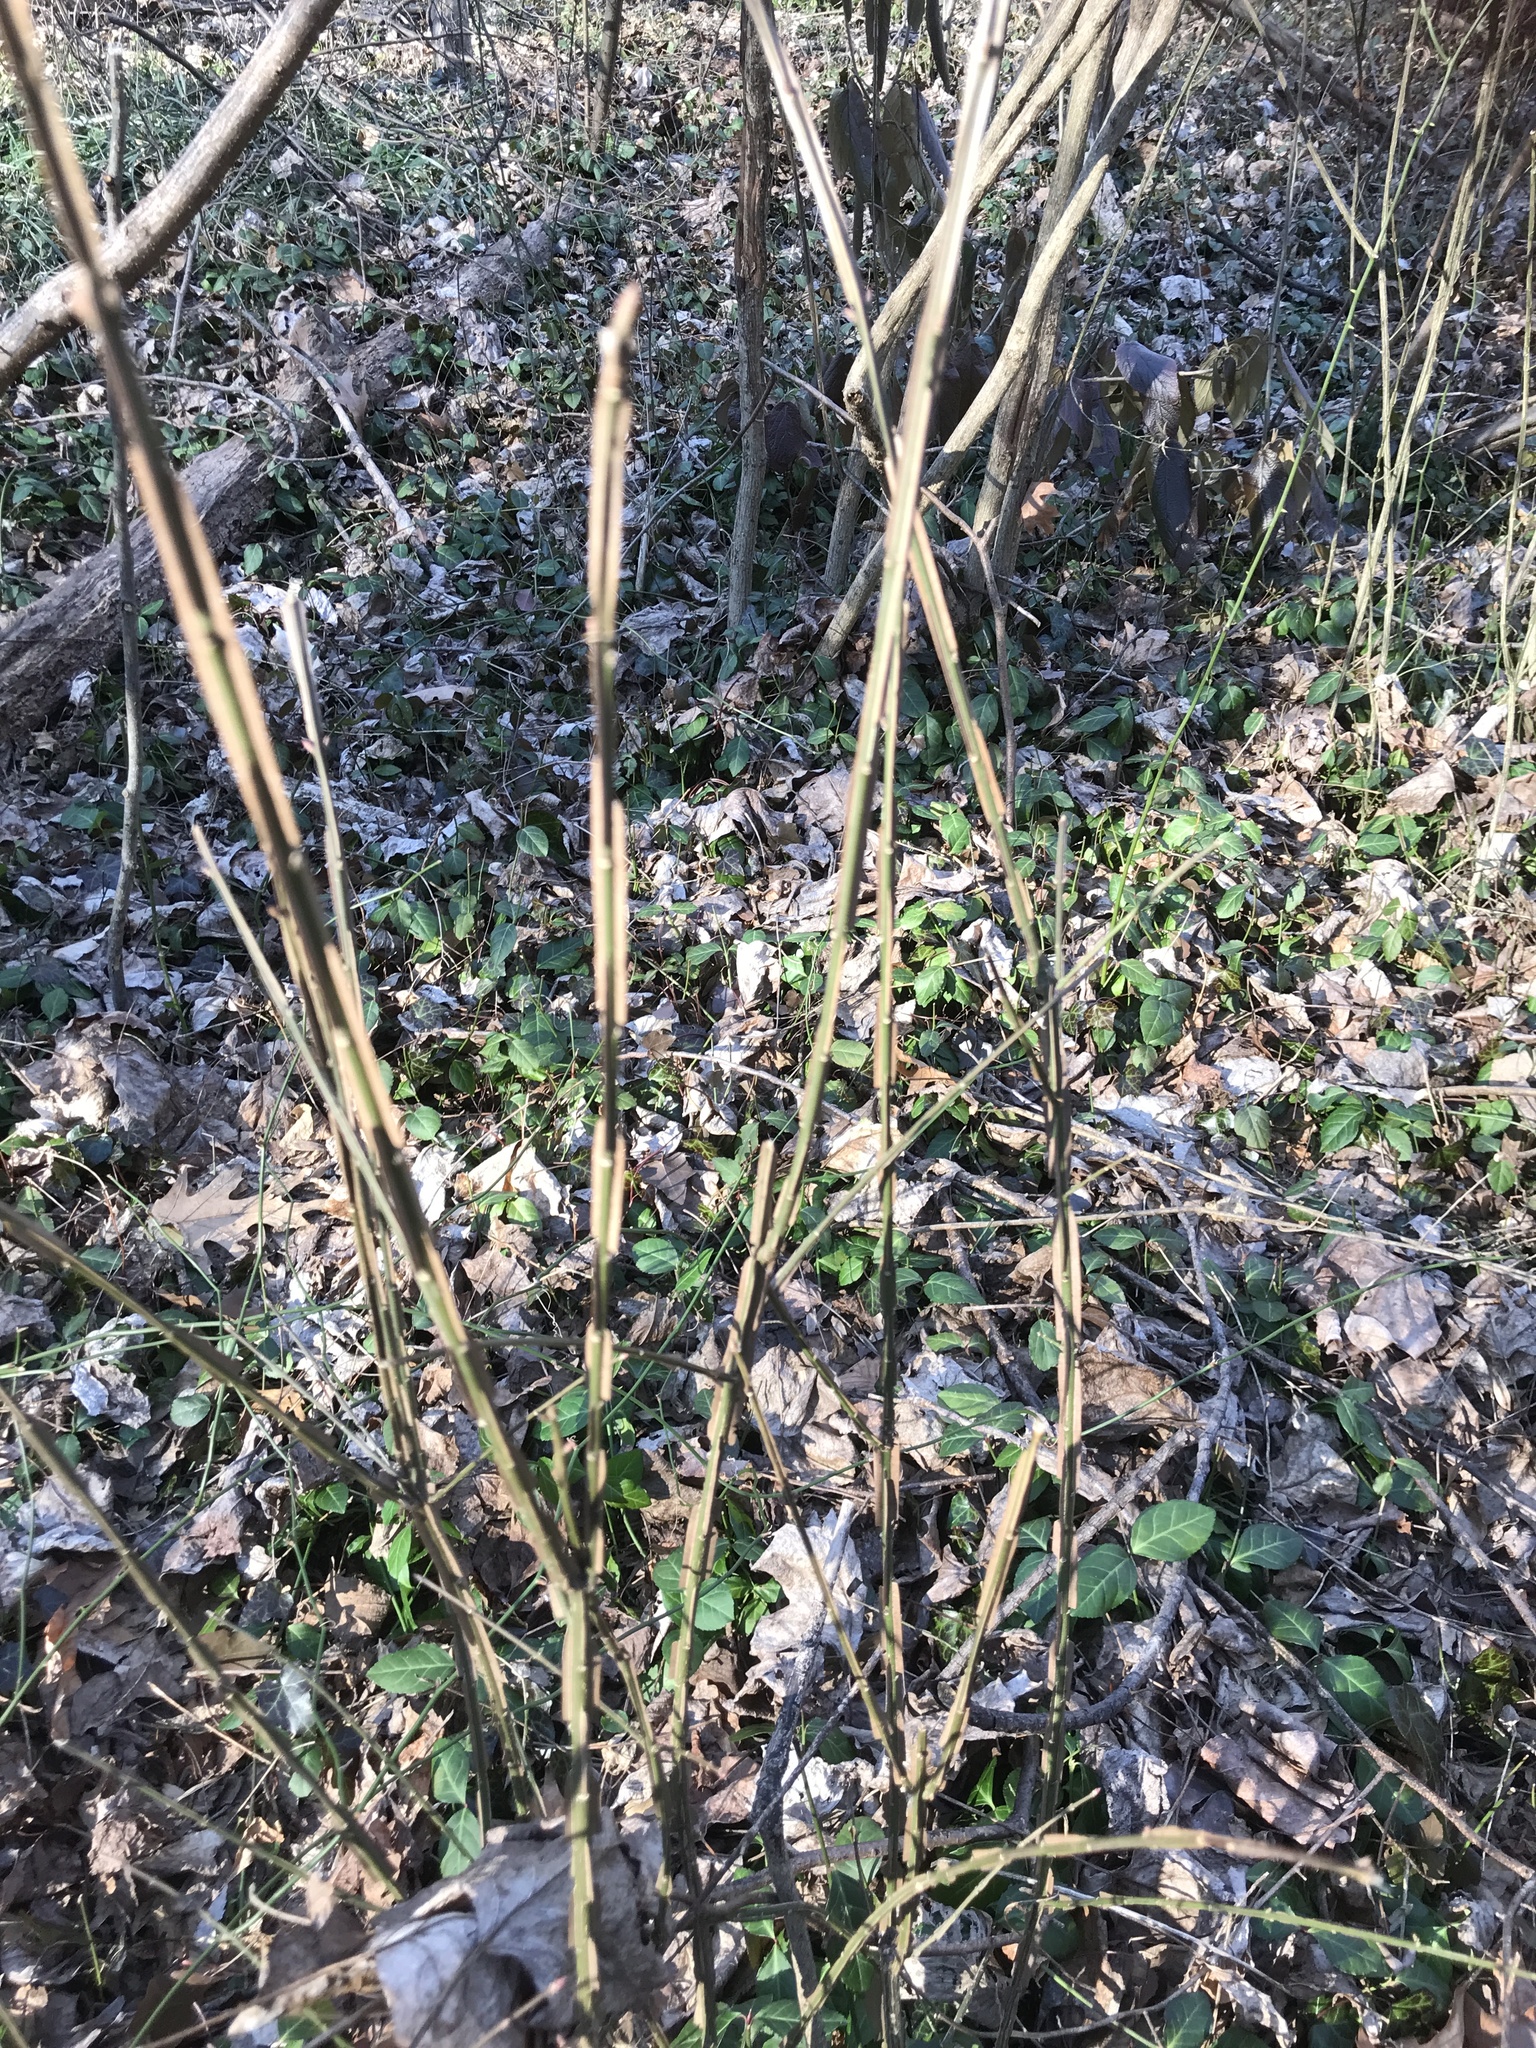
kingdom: Plantae
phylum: Tracheophyta
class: Magnoliopsida
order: Celastrales
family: Celastraceae
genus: Euonymus
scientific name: Euonymus alatus
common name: Winged euonymus
